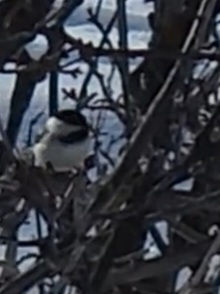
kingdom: Animalia
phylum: Chordata
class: Aves
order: Passeriformes
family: Paridae
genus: Poecile
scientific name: Poecile atricapillus
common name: Black-capped chickadee
